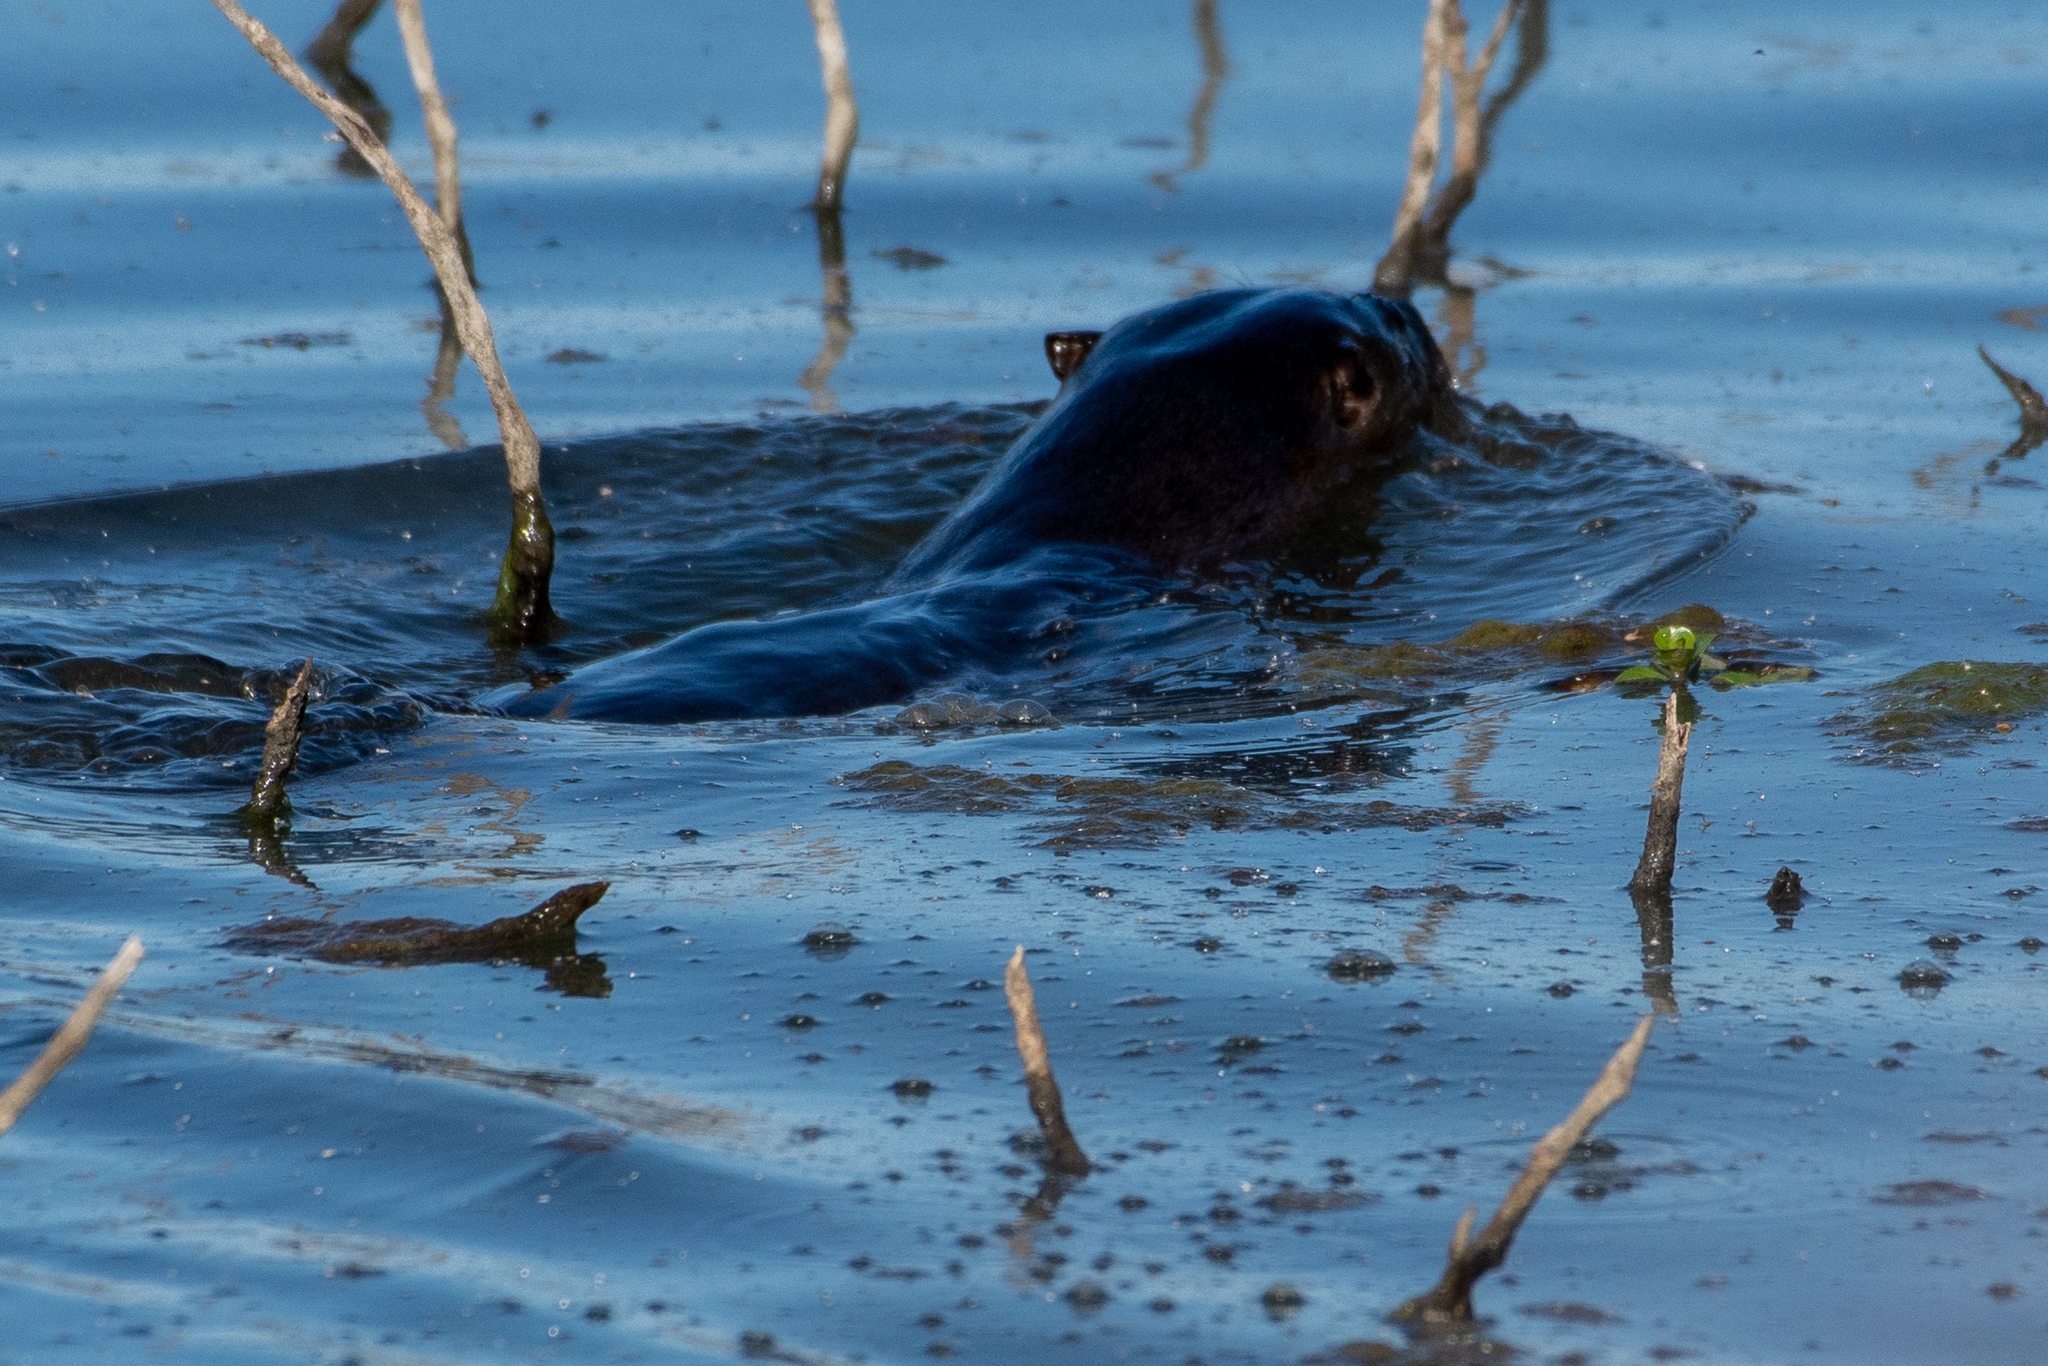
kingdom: Animalia
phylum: Chordata
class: Mammalia
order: Carnivora
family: Mustelidae
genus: Lontra
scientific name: Lontra canadensis
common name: North american river otter
